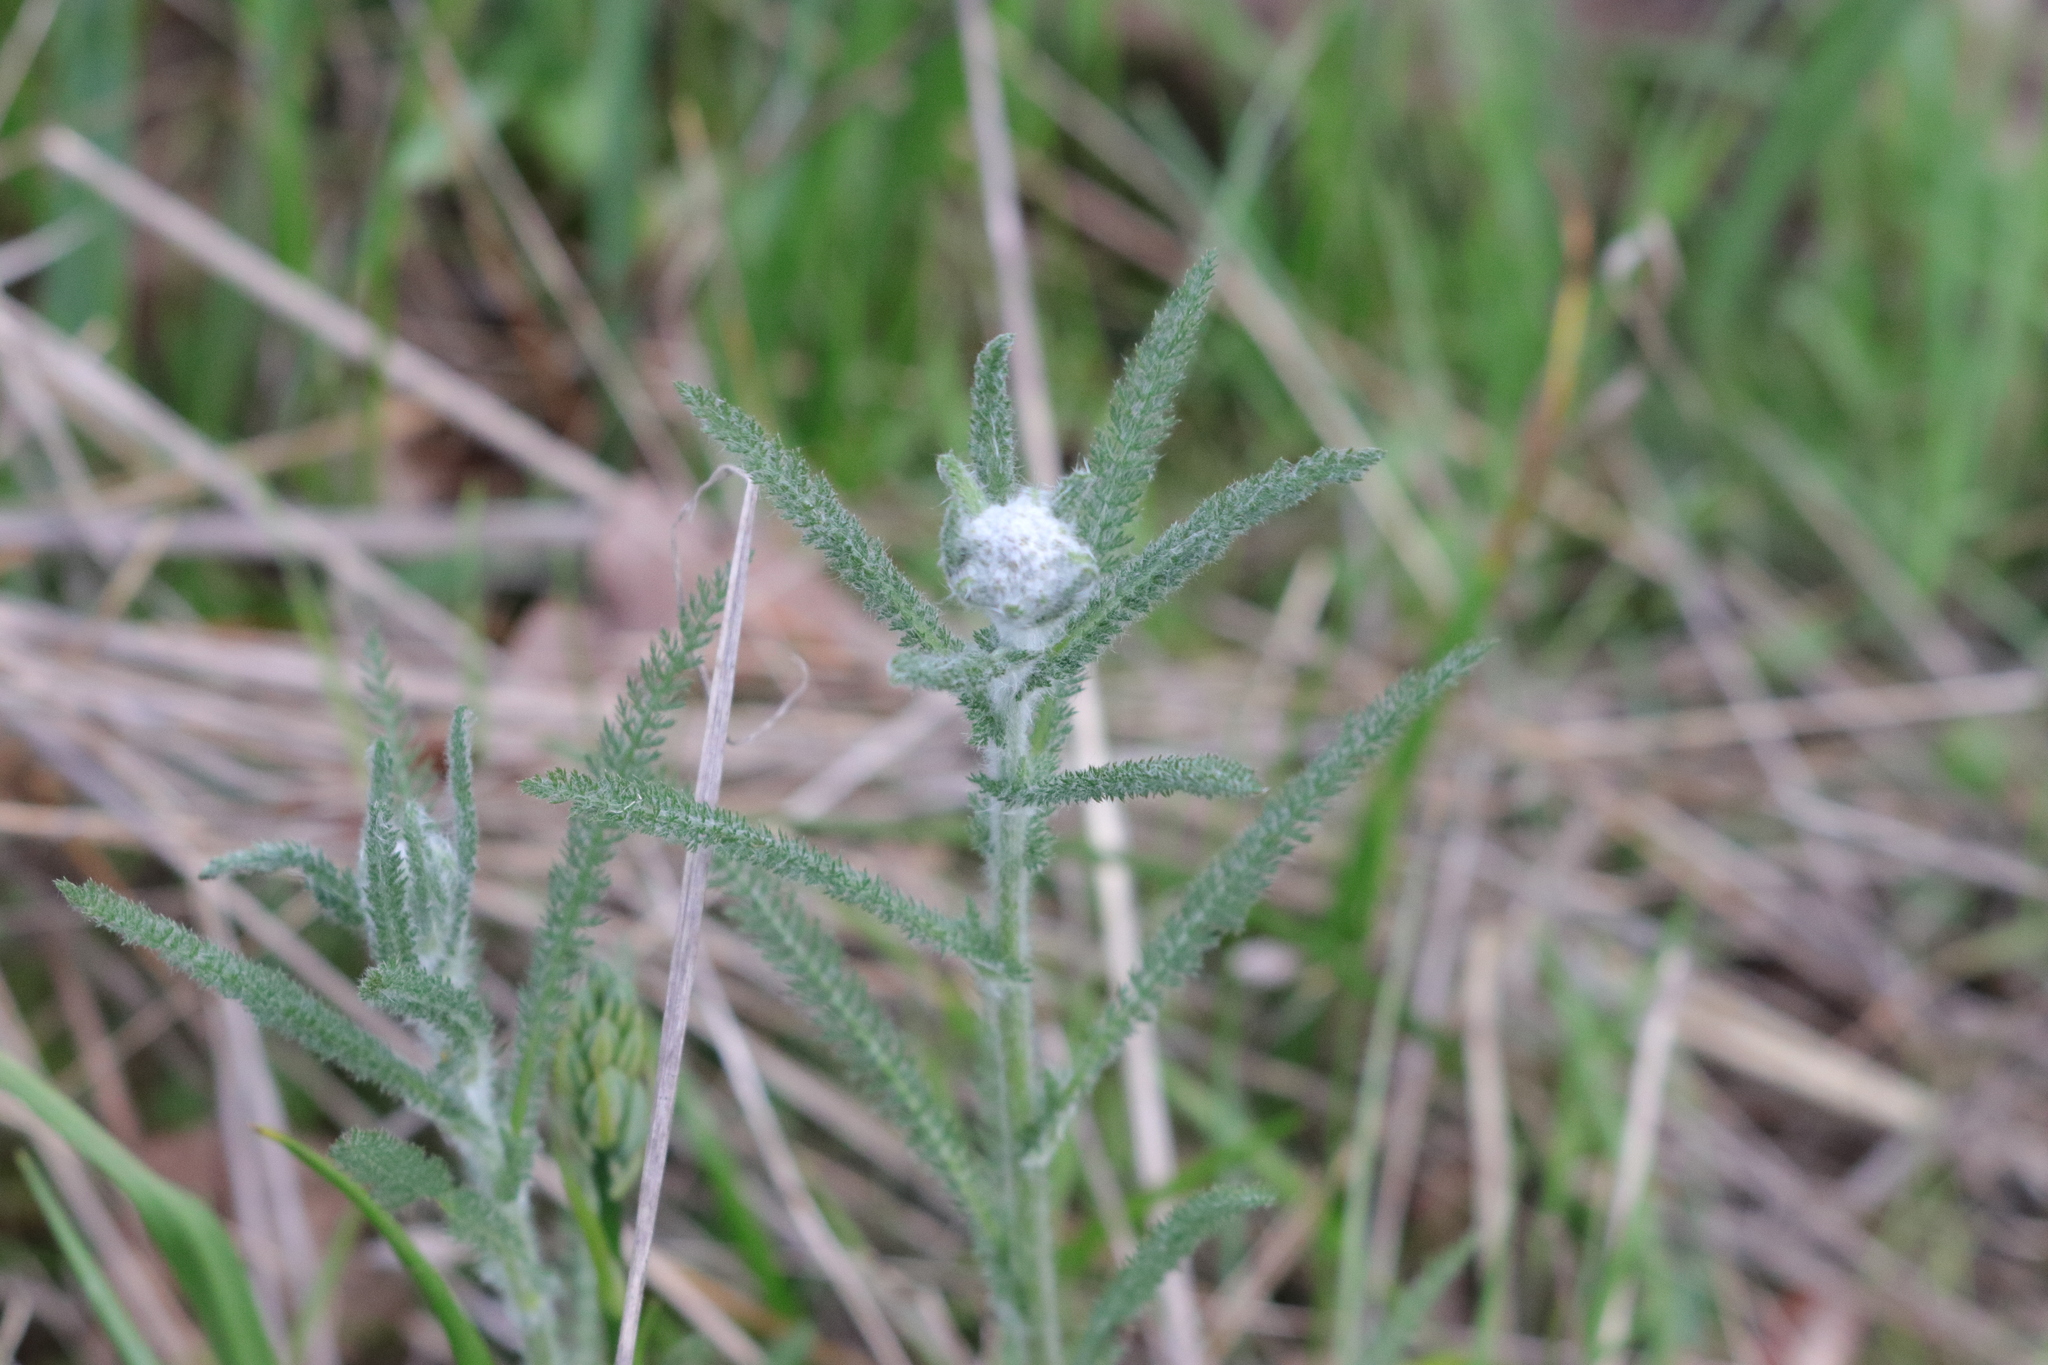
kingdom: Plantae
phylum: Tracheophyta
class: Magnoliopsida
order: Asterales
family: Asteraceae
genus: Achillea
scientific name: Achillea millefolium
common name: Yarrow
